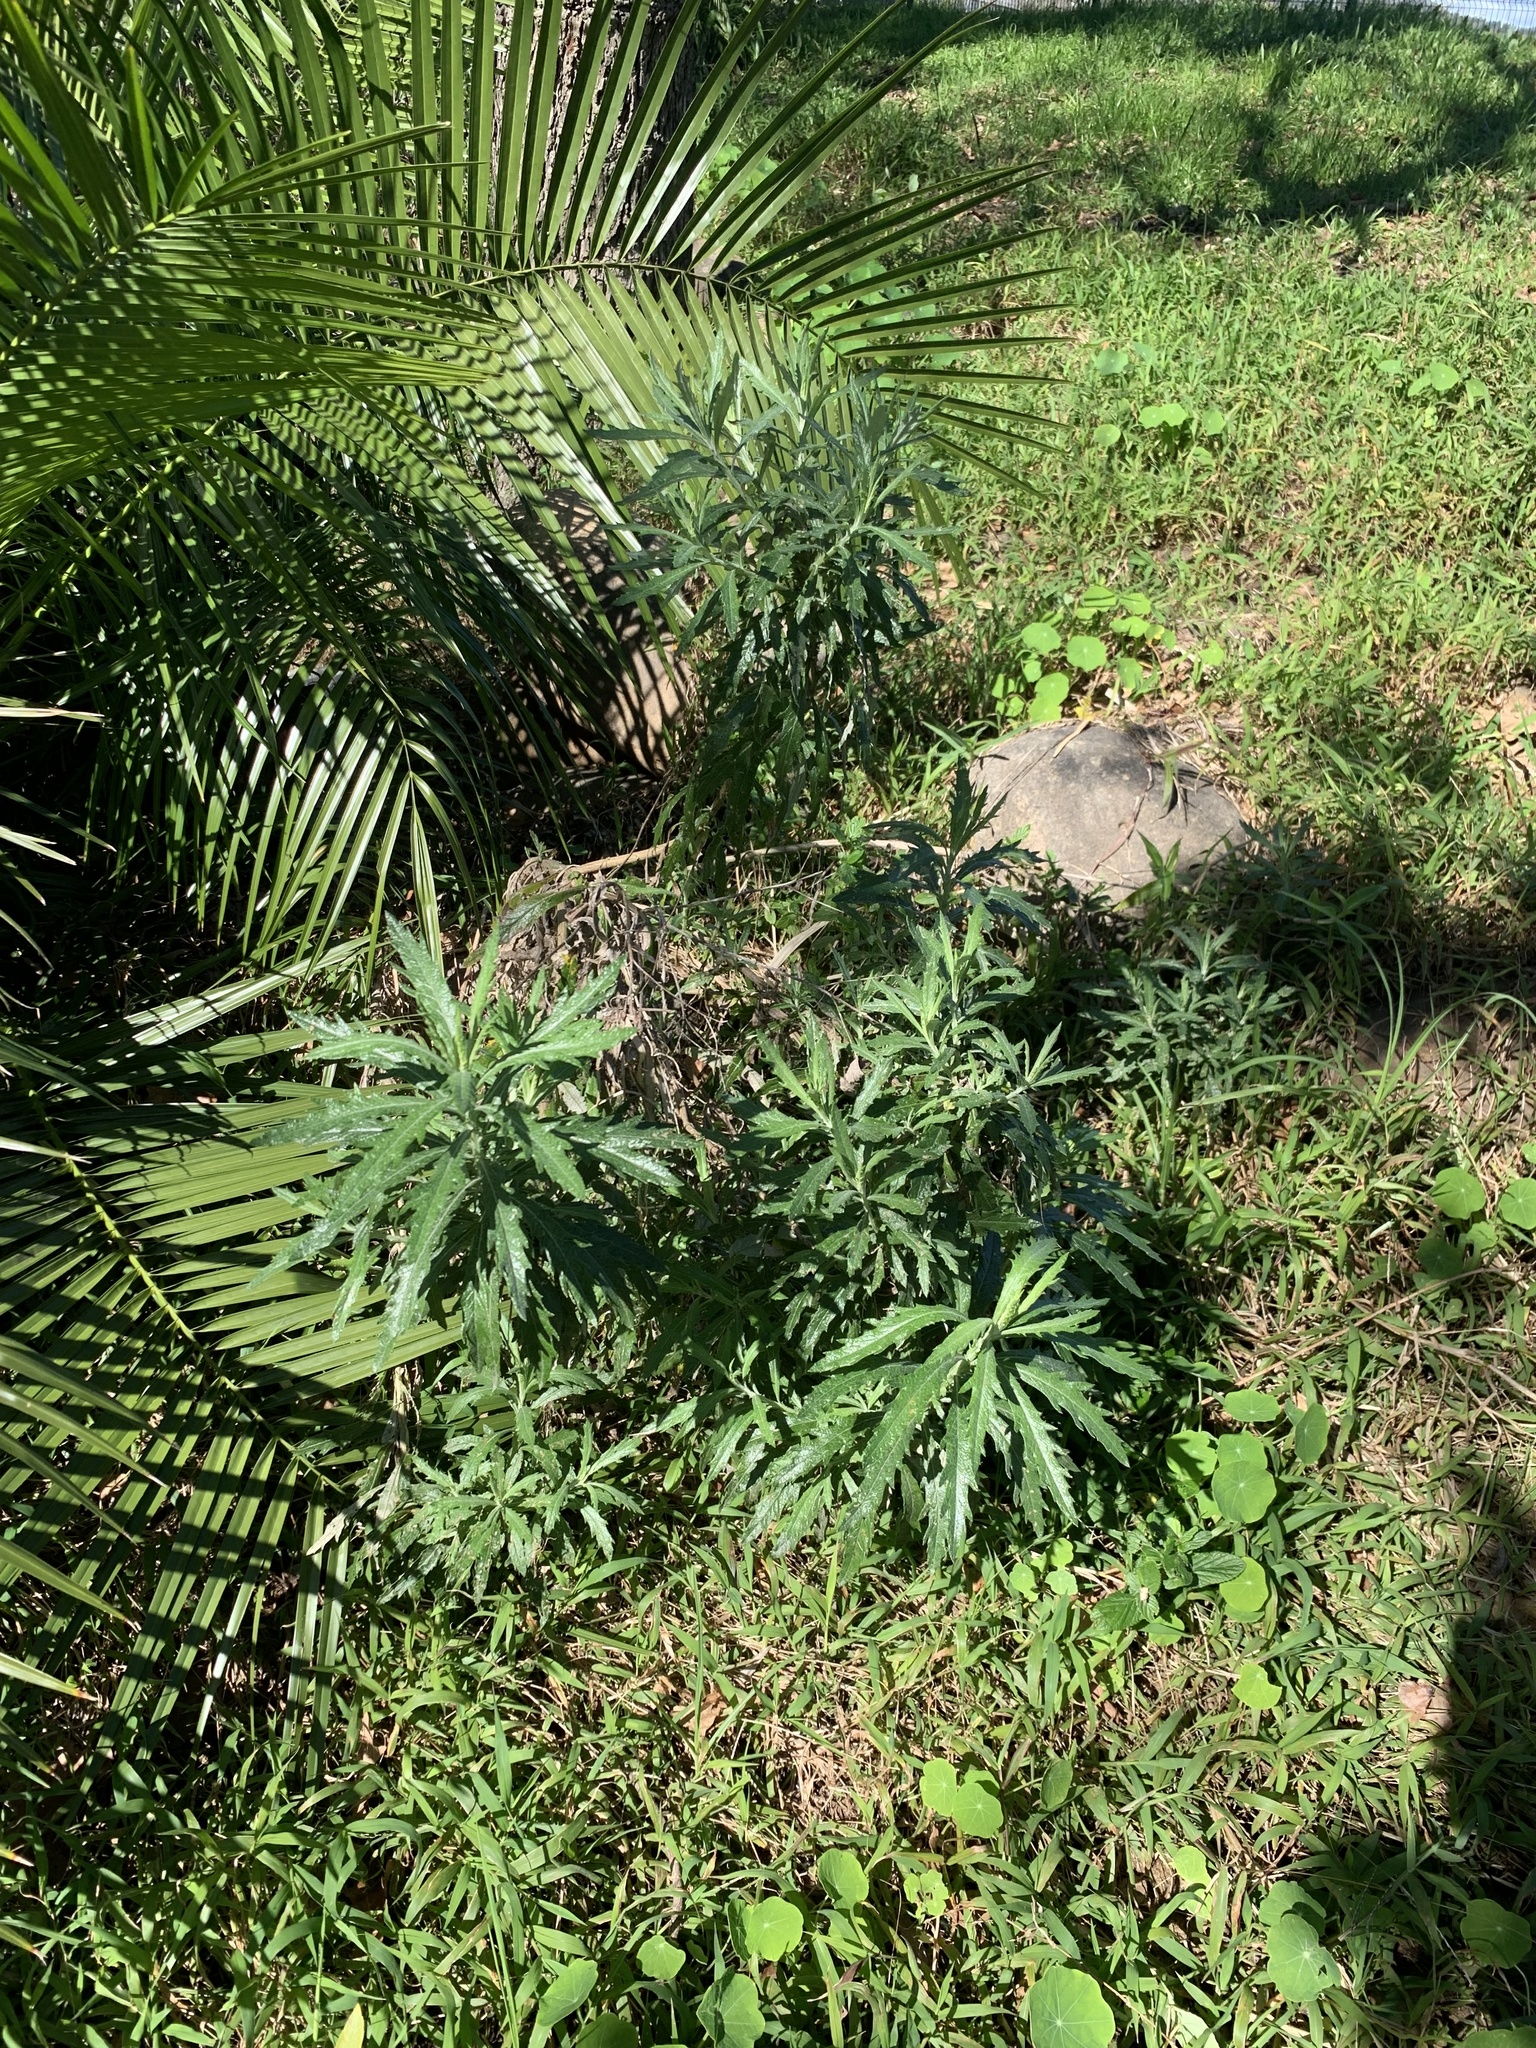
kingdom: Plantae
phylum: Tracheophyta
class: Magnoliopsida
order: Asterales
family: Asteraceae
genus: Senecio
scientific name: Senecio pterophorus
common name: Shoddy ragwort
